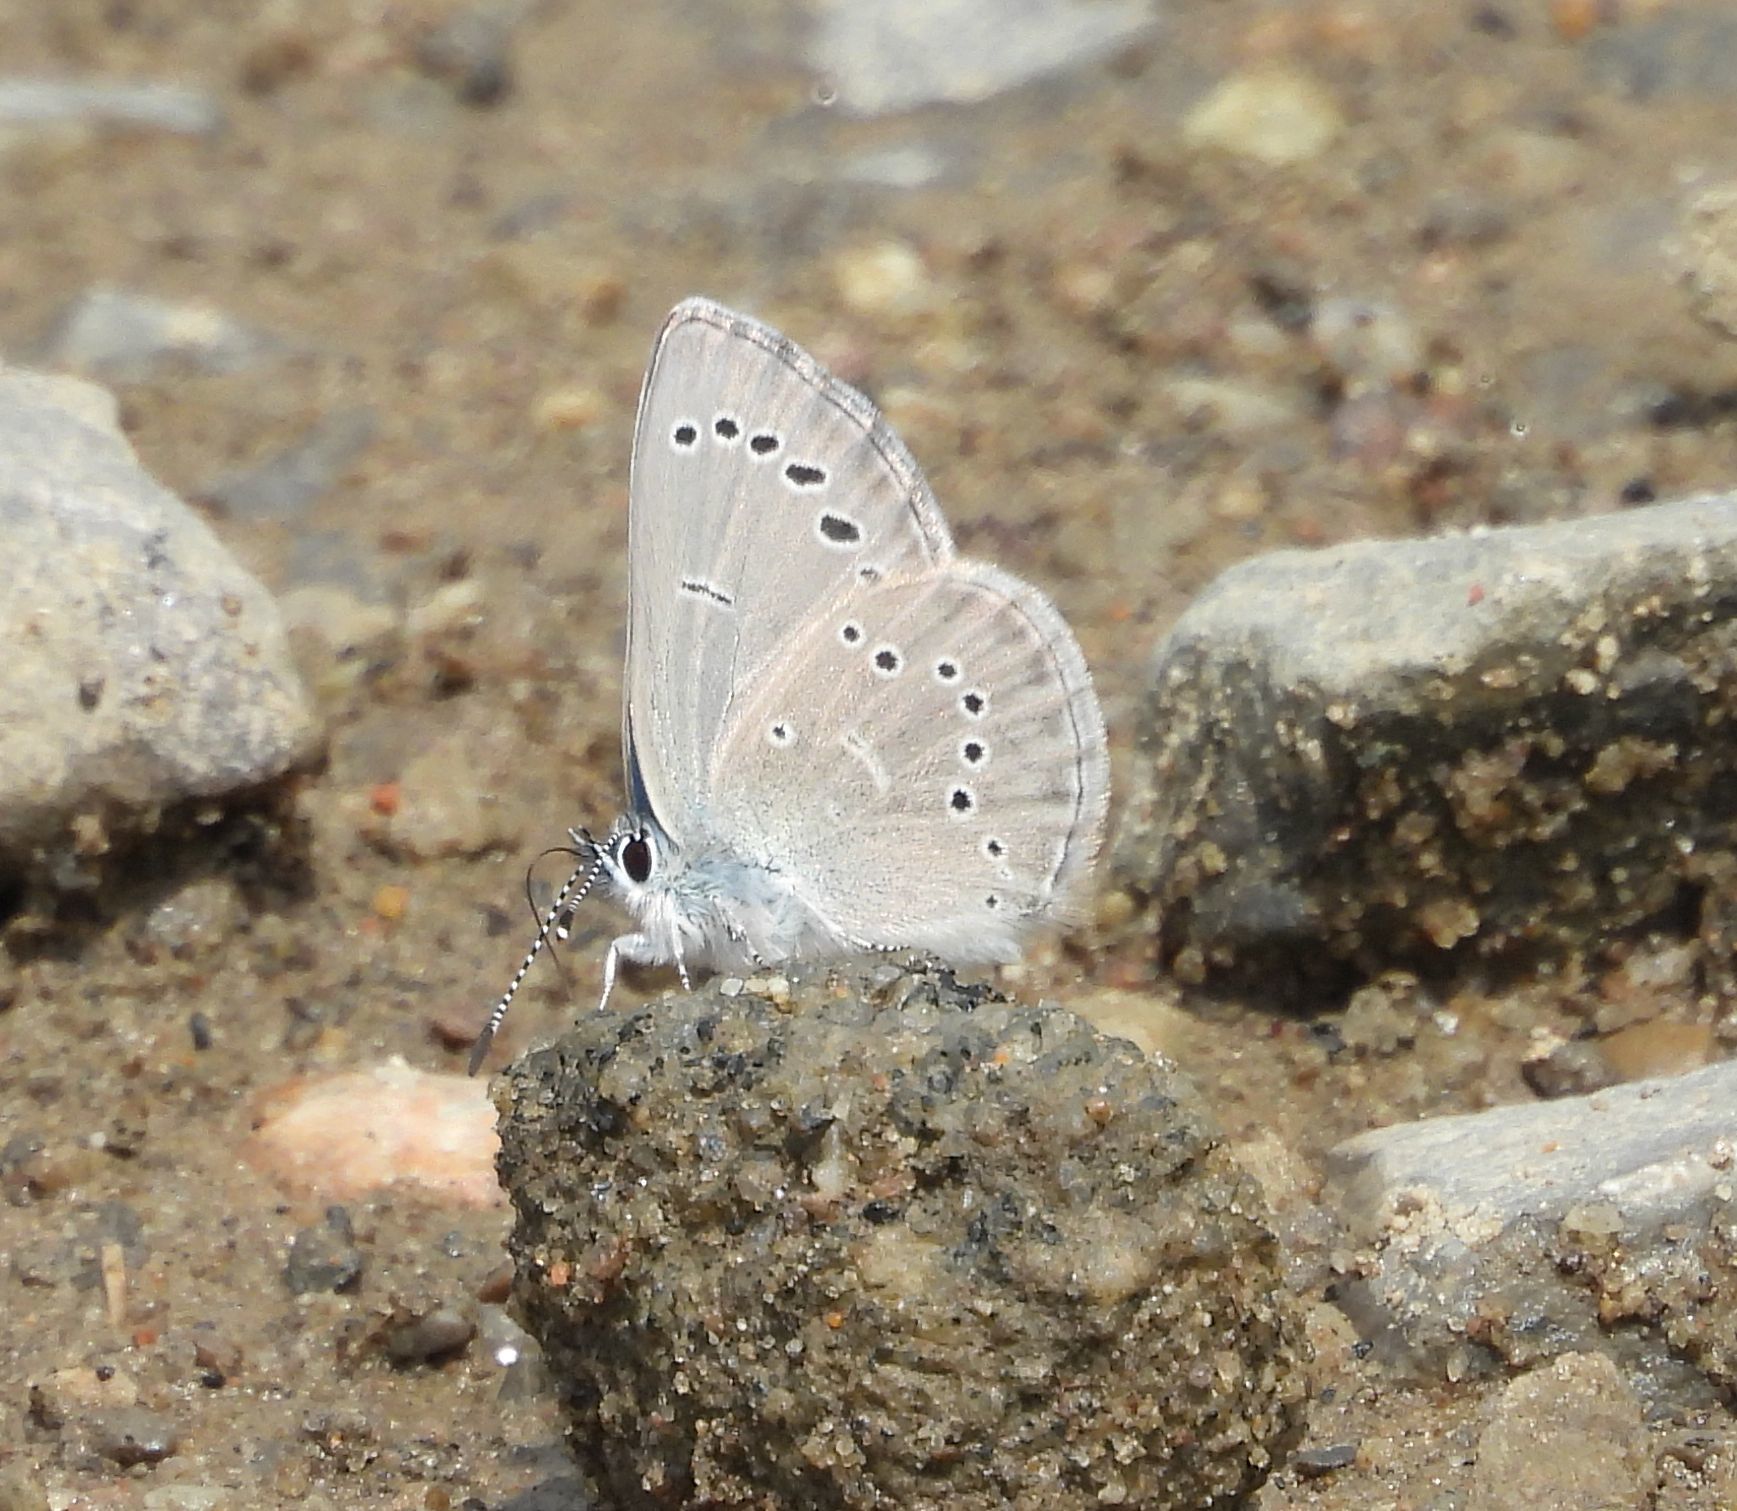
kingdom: Animalia
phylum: Arthropoda
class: Insecta
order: Lepidoptera
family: Lycaenidae
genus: Glaucopsyche
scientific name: Glaucopsyche lygdamus
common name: Silvery blue
